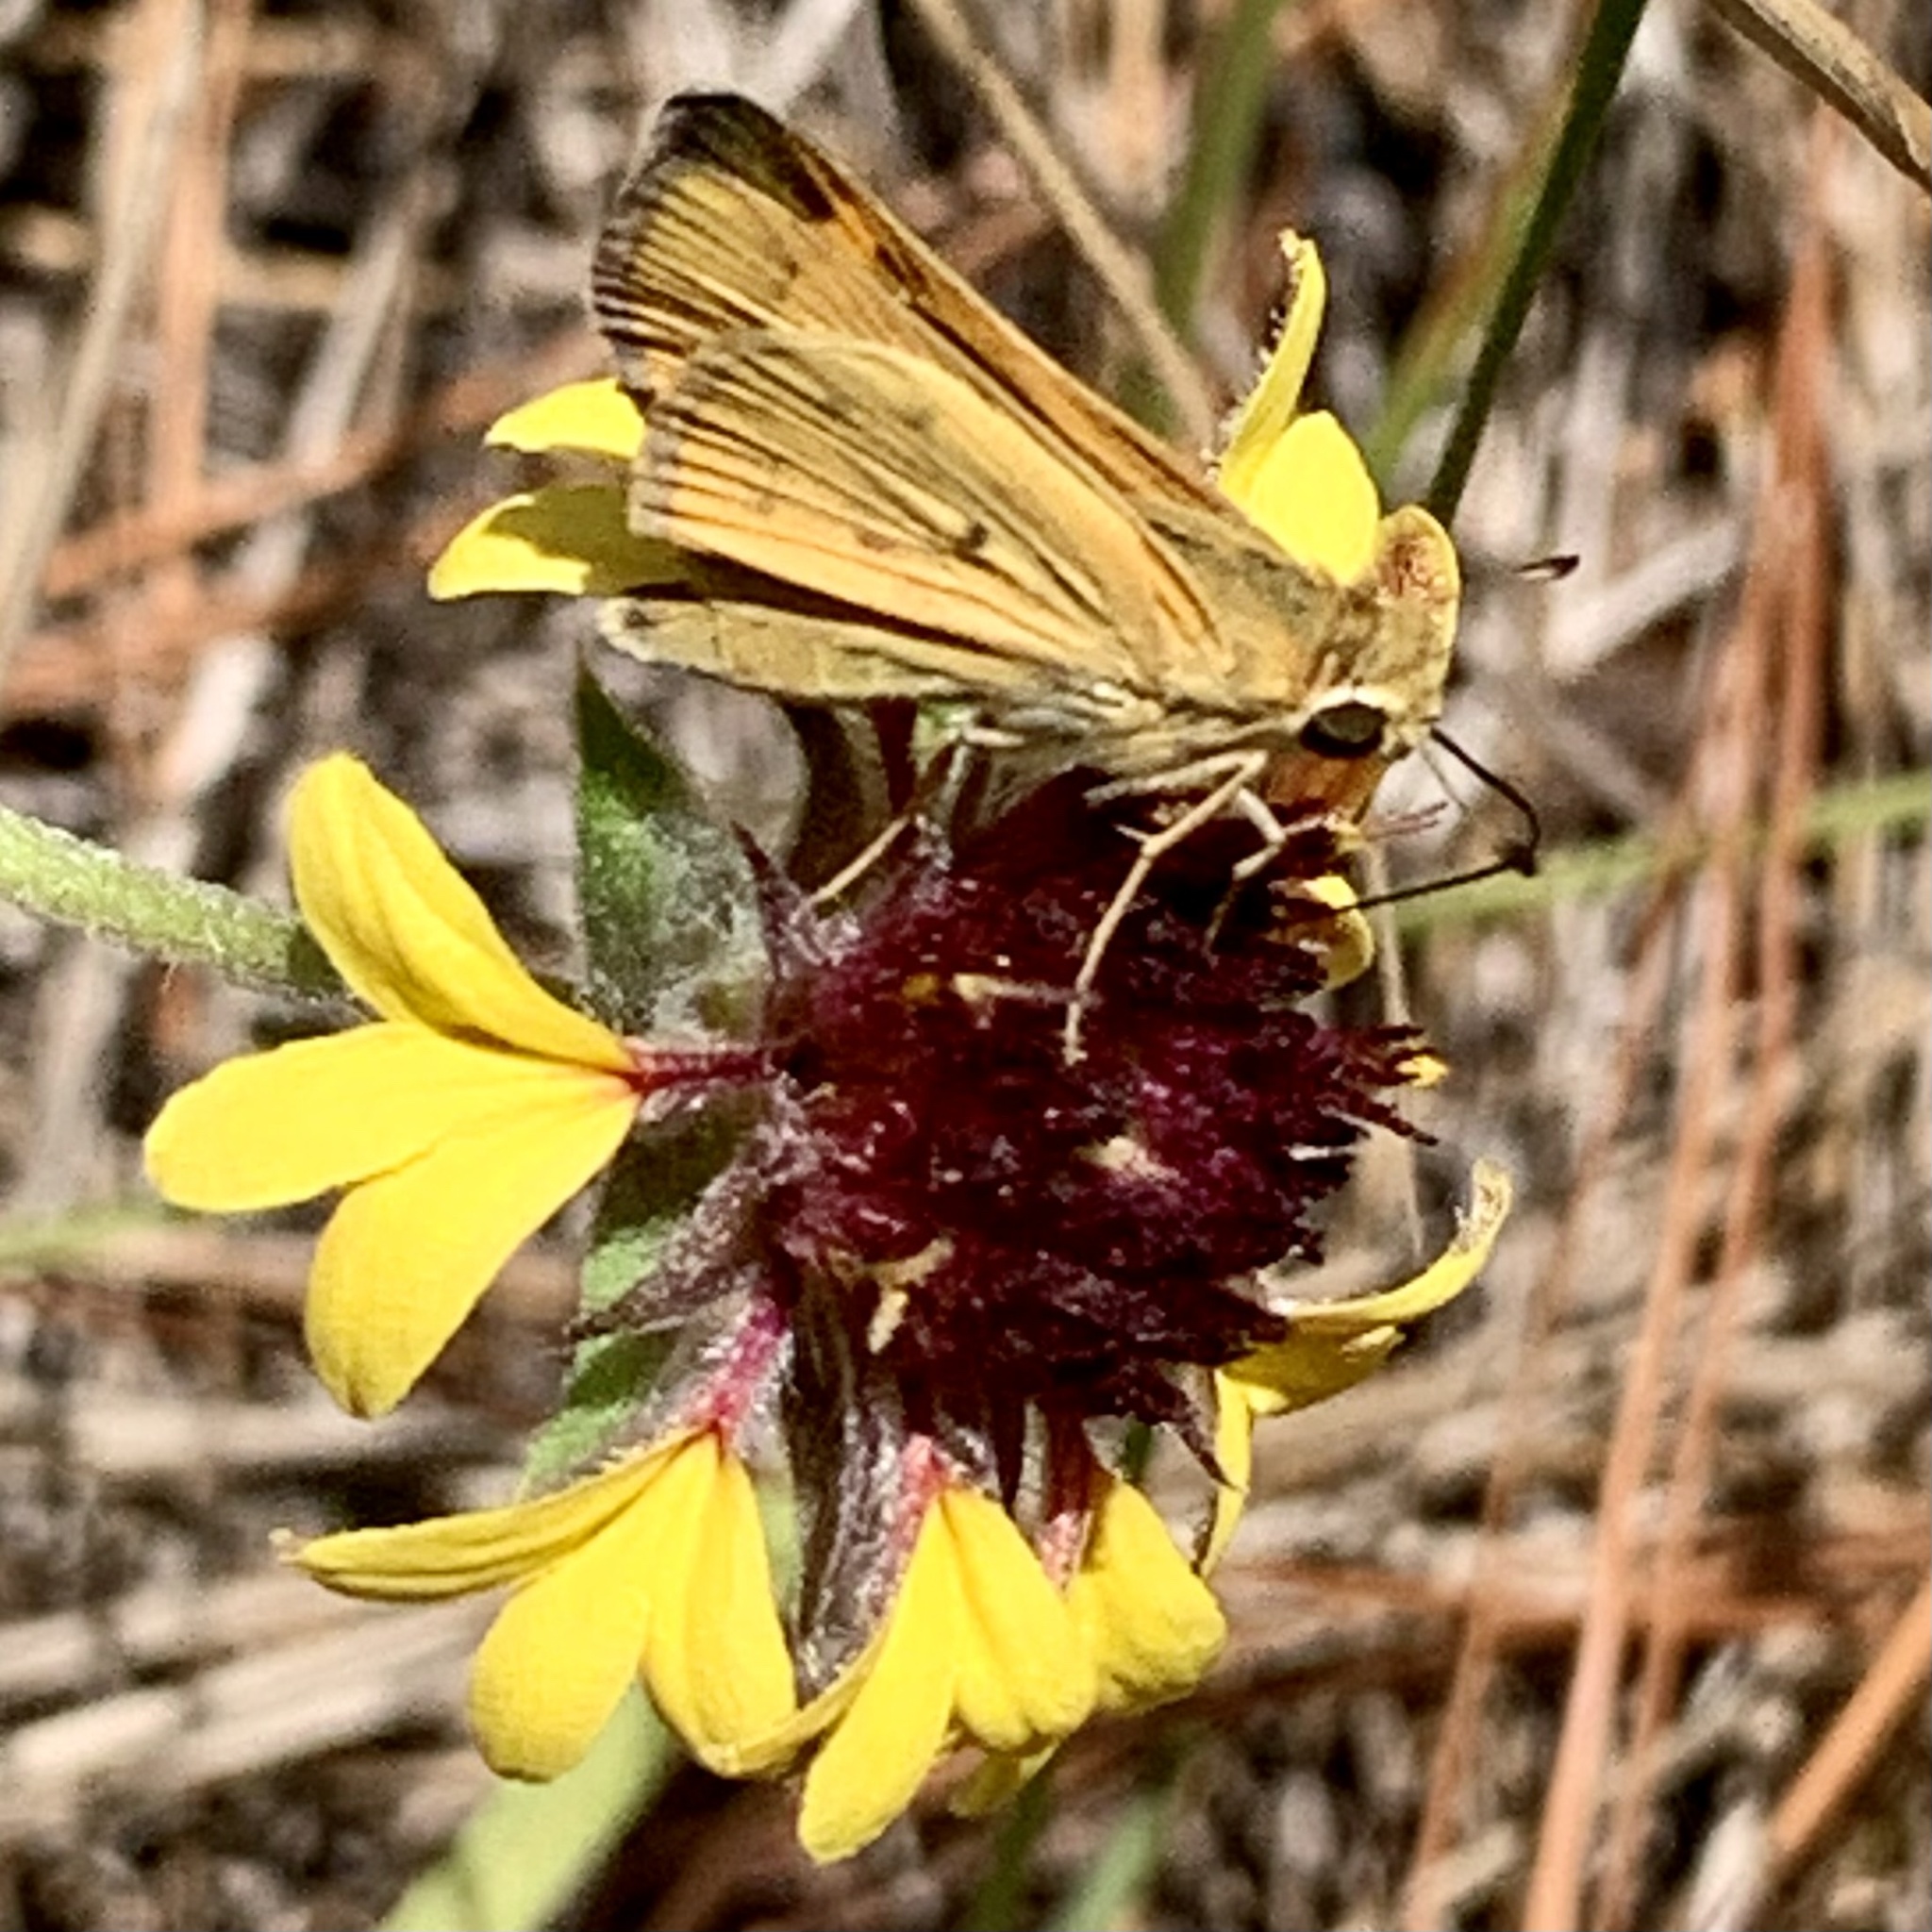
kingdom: Animalia
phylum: Arthropoda
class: Insecta
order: Lepidoptera
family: Hesperiidae
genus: Hylephila
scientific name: Hylephila phyleus
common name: Fiery skipper
